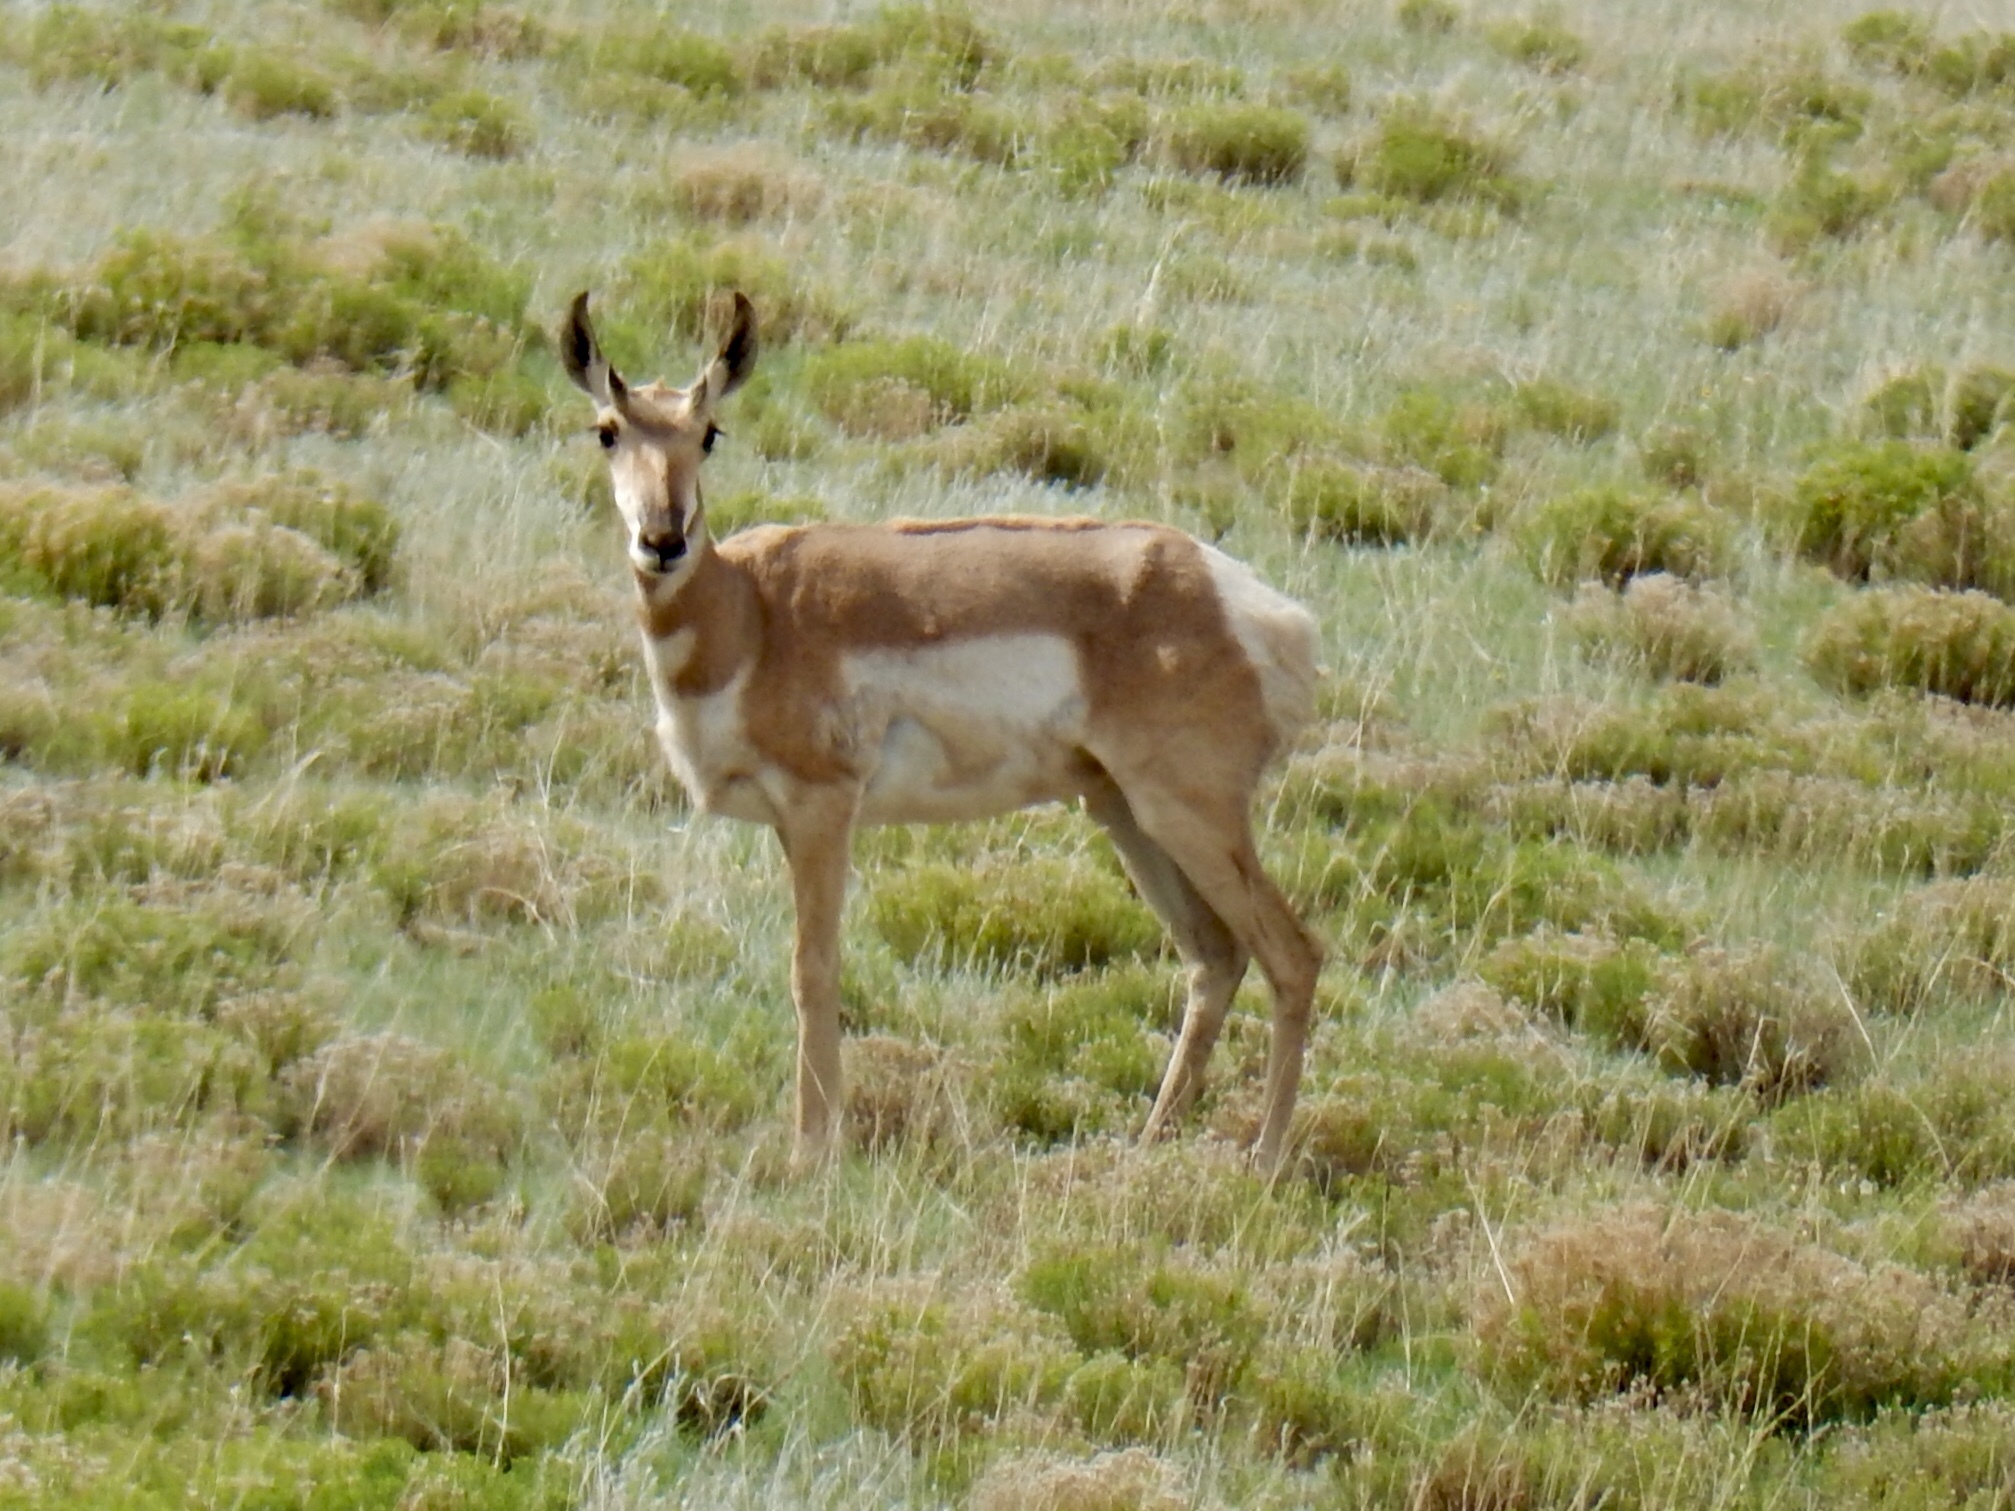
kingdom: Animalia
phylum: Chordata
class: Mammalia
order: Artiodactyla
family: Antilocapridae
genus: Antilocapra
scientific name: Antilocapra americana
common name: Pronghorn
